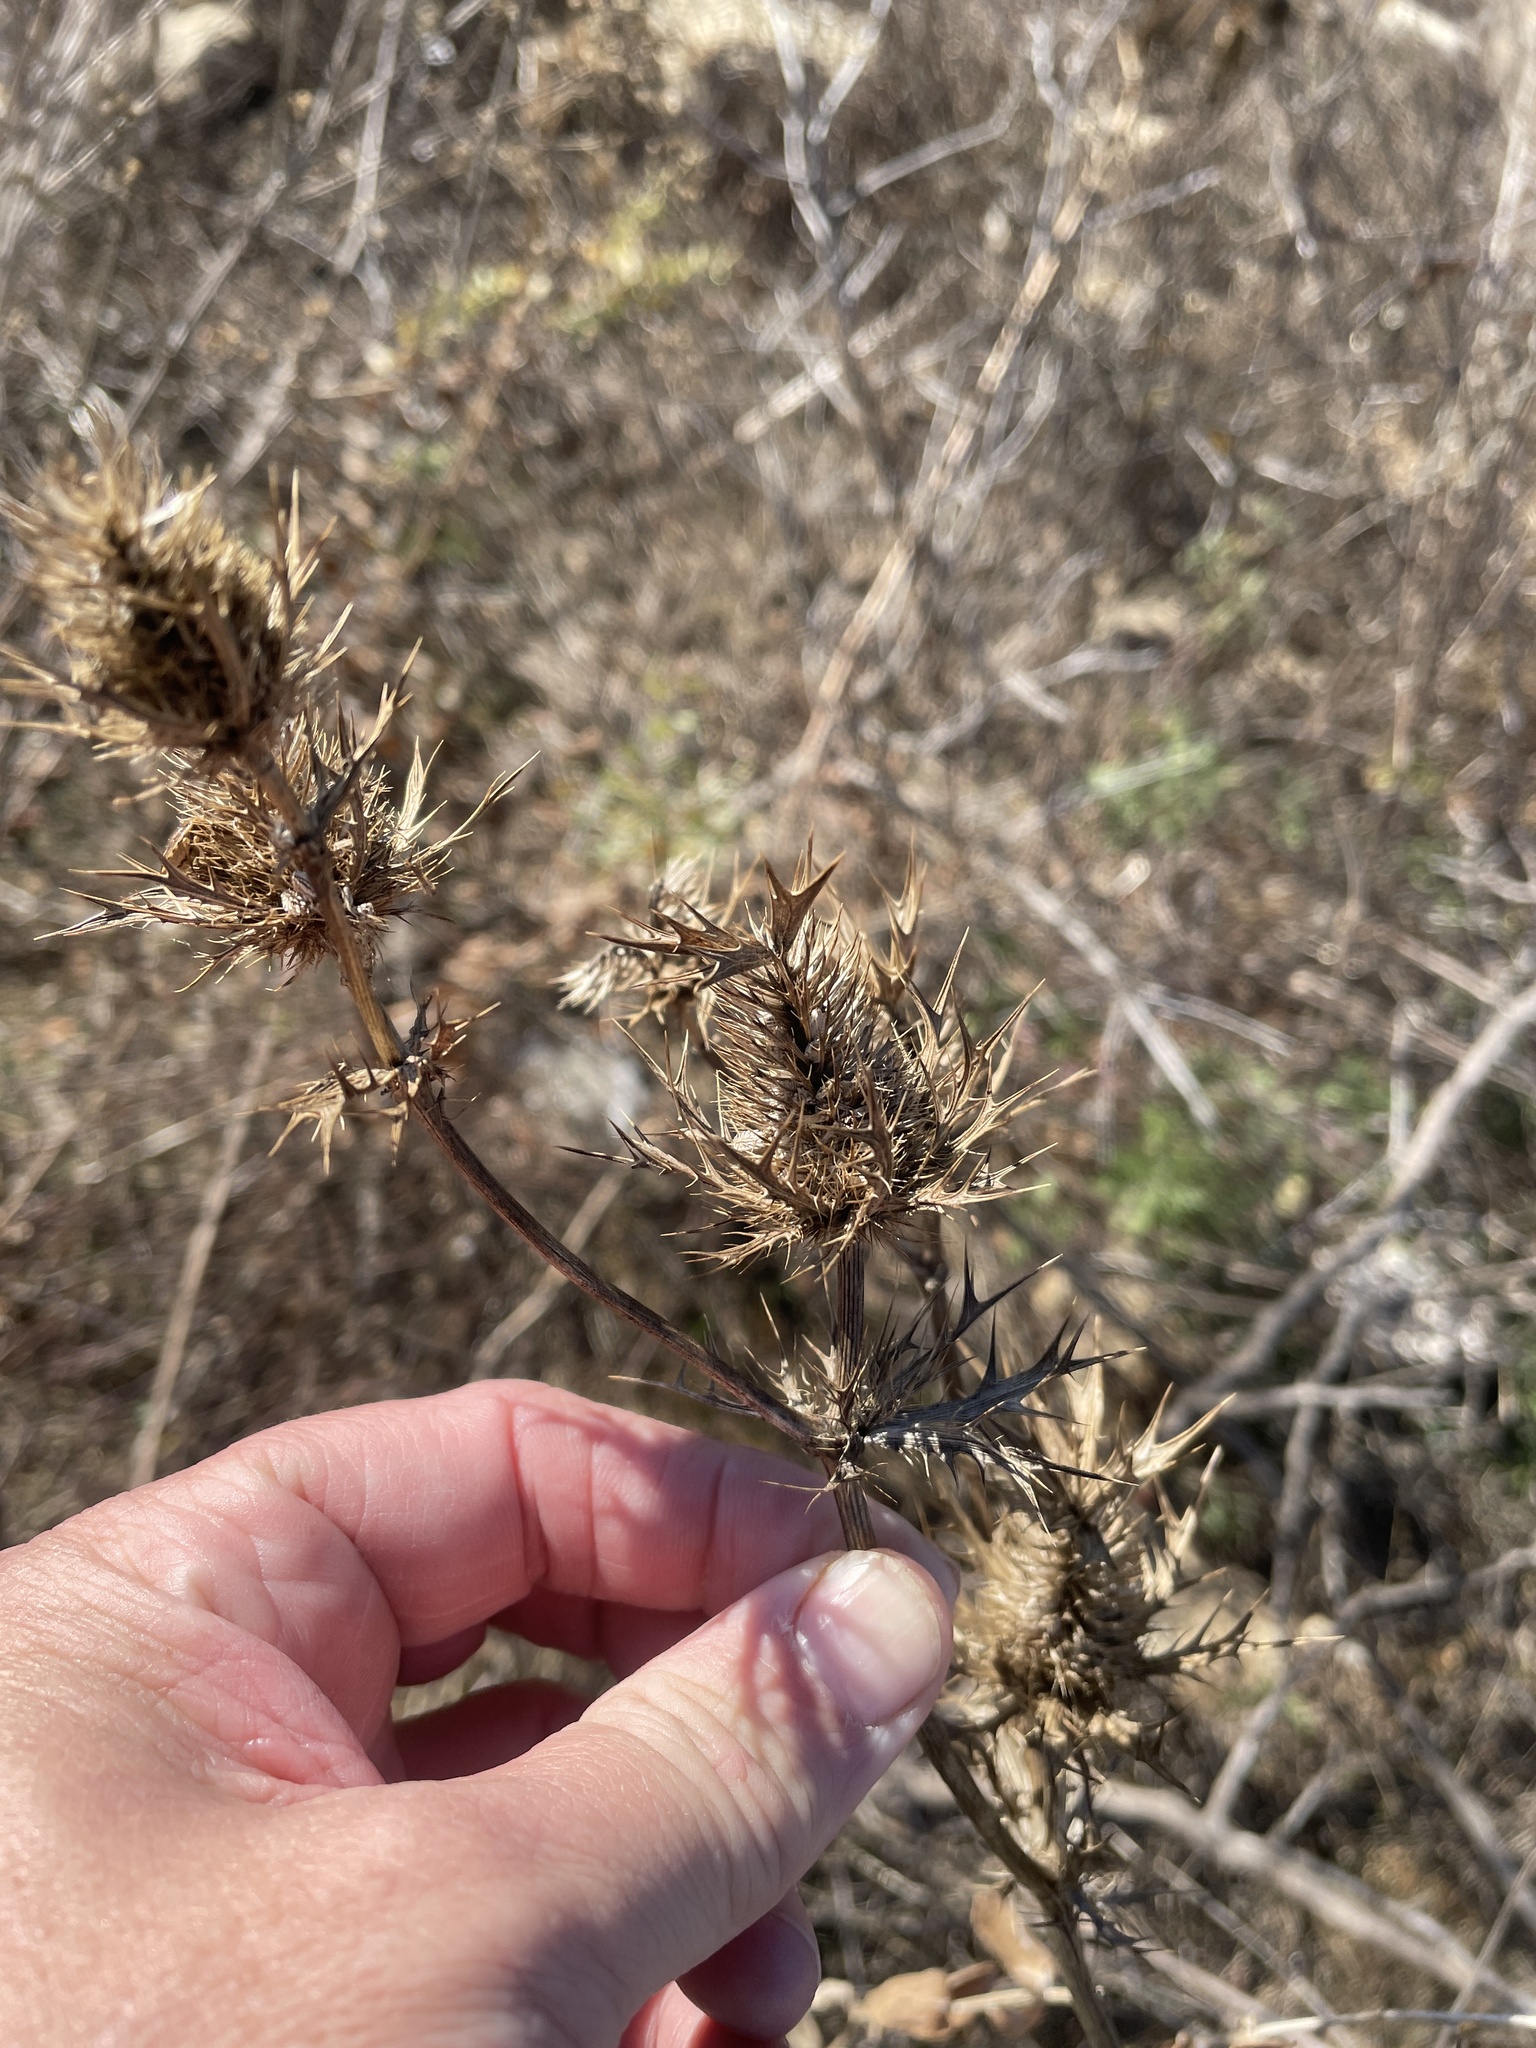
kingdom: Plantae
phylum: Tracheophyta
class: Magnoliopsida
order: Apiales
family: Apiaceae
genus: Eryngium
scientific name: Eryngium leavenworthii
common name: Leavenworth's eryngo
